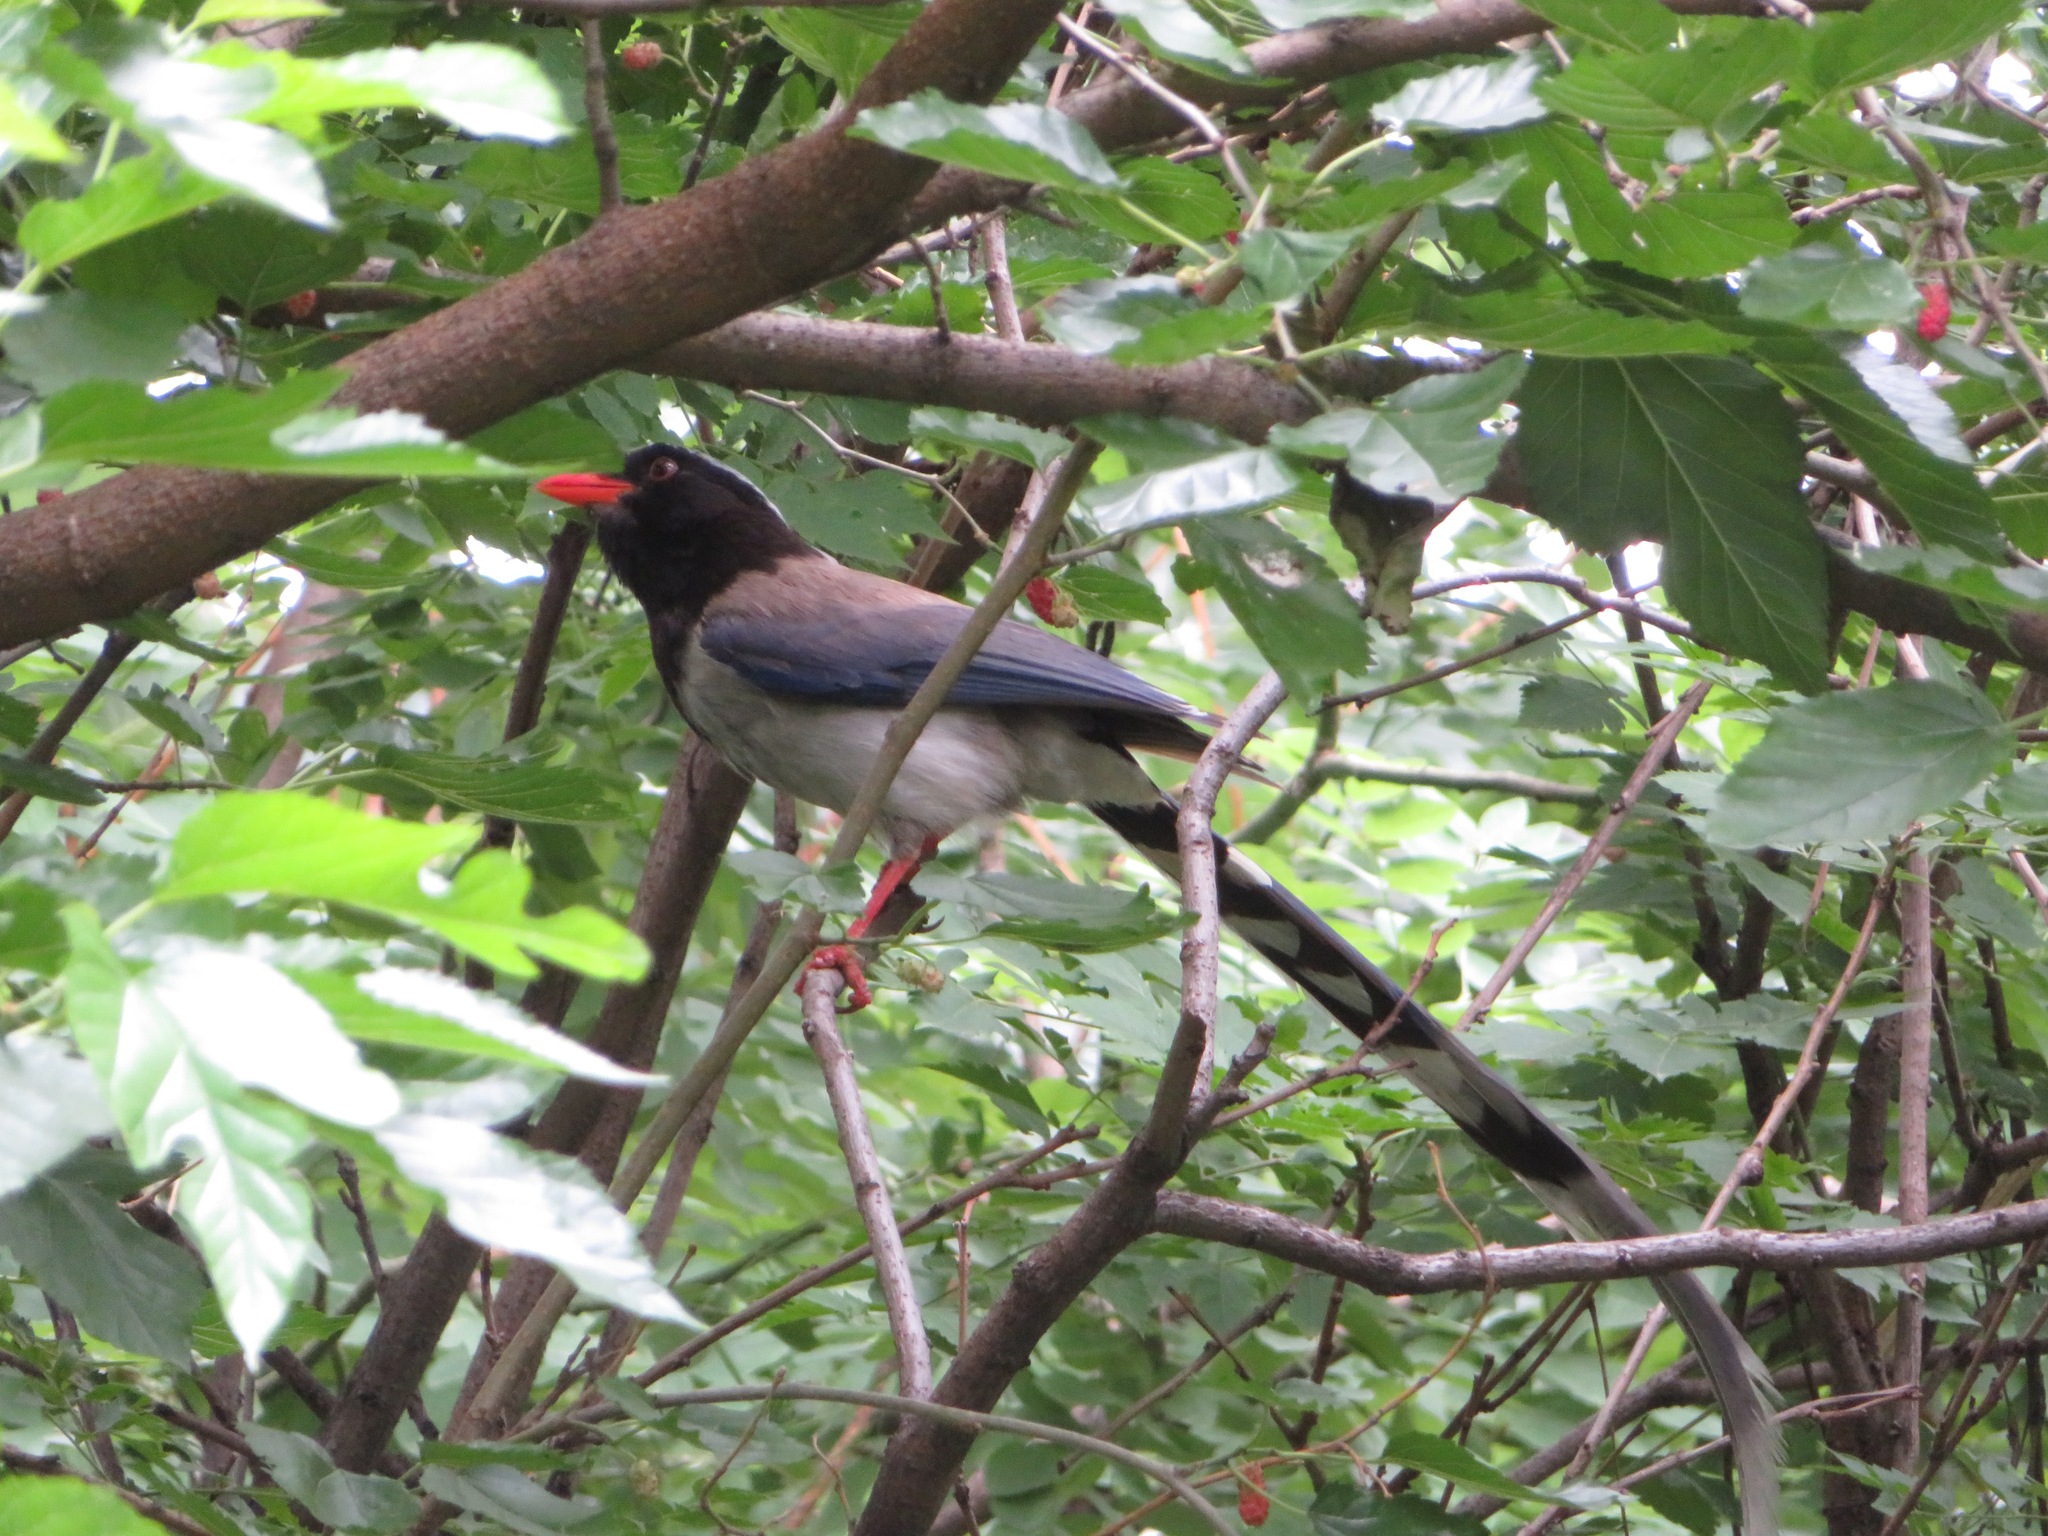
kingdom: Animalia
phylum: Chordata
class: Aves
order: Passeriformes
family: Corvidae
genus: Urocissa
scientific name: Urocissa erythroryncha
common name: Red-billed blue magpie
